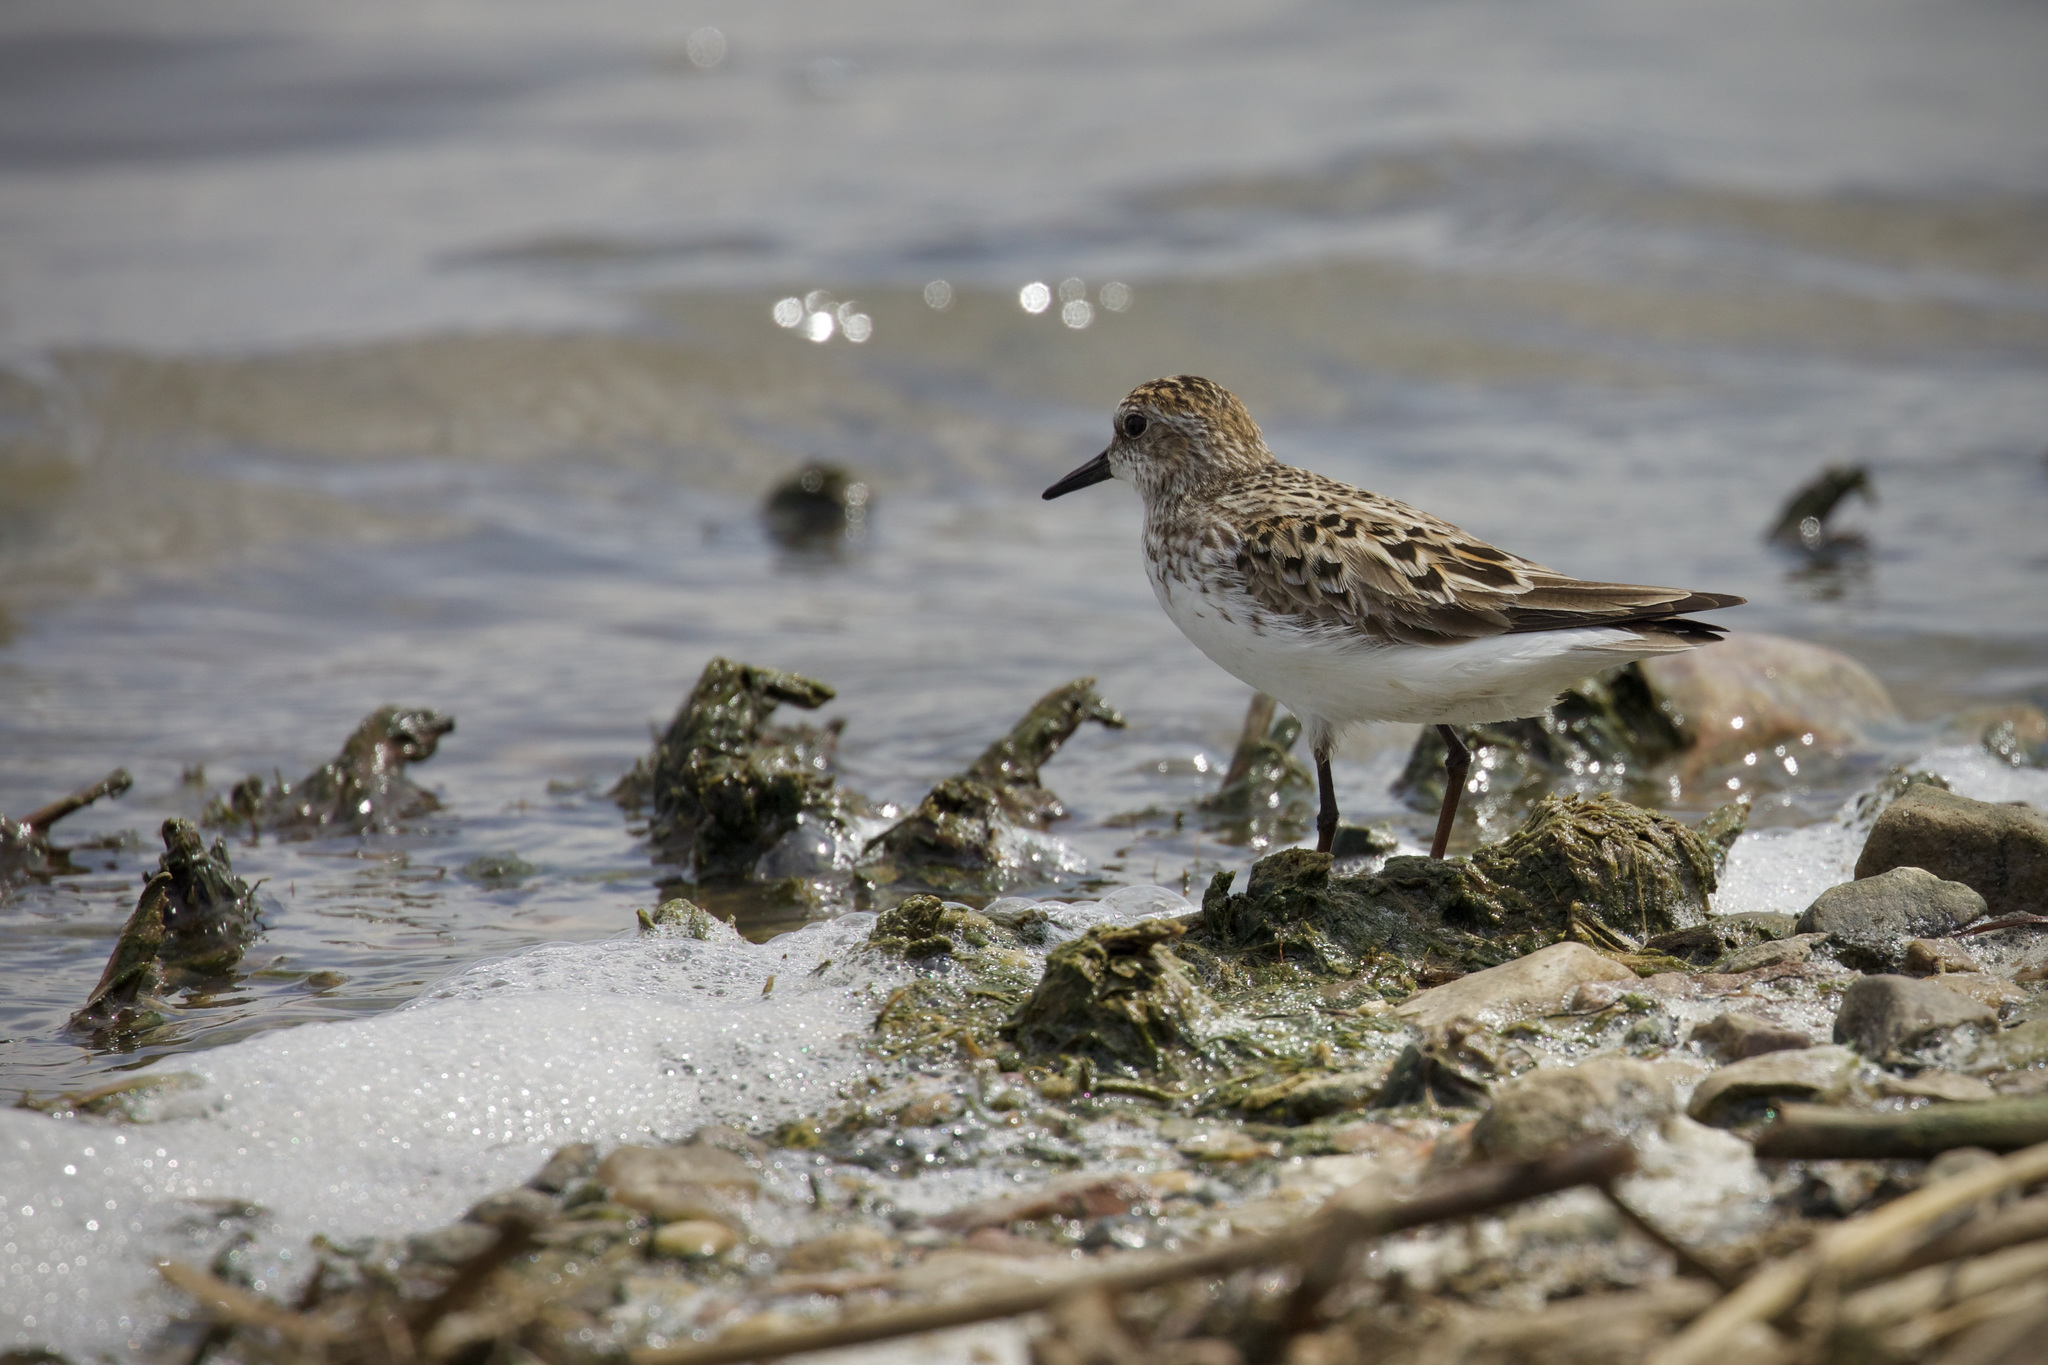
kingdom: Animalia
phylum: Chordata
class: Aves
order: Charadriiformes
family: Scolopacidae
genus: Calidris
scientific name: Calidris pusilla
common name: Semipalmated sandpiper
